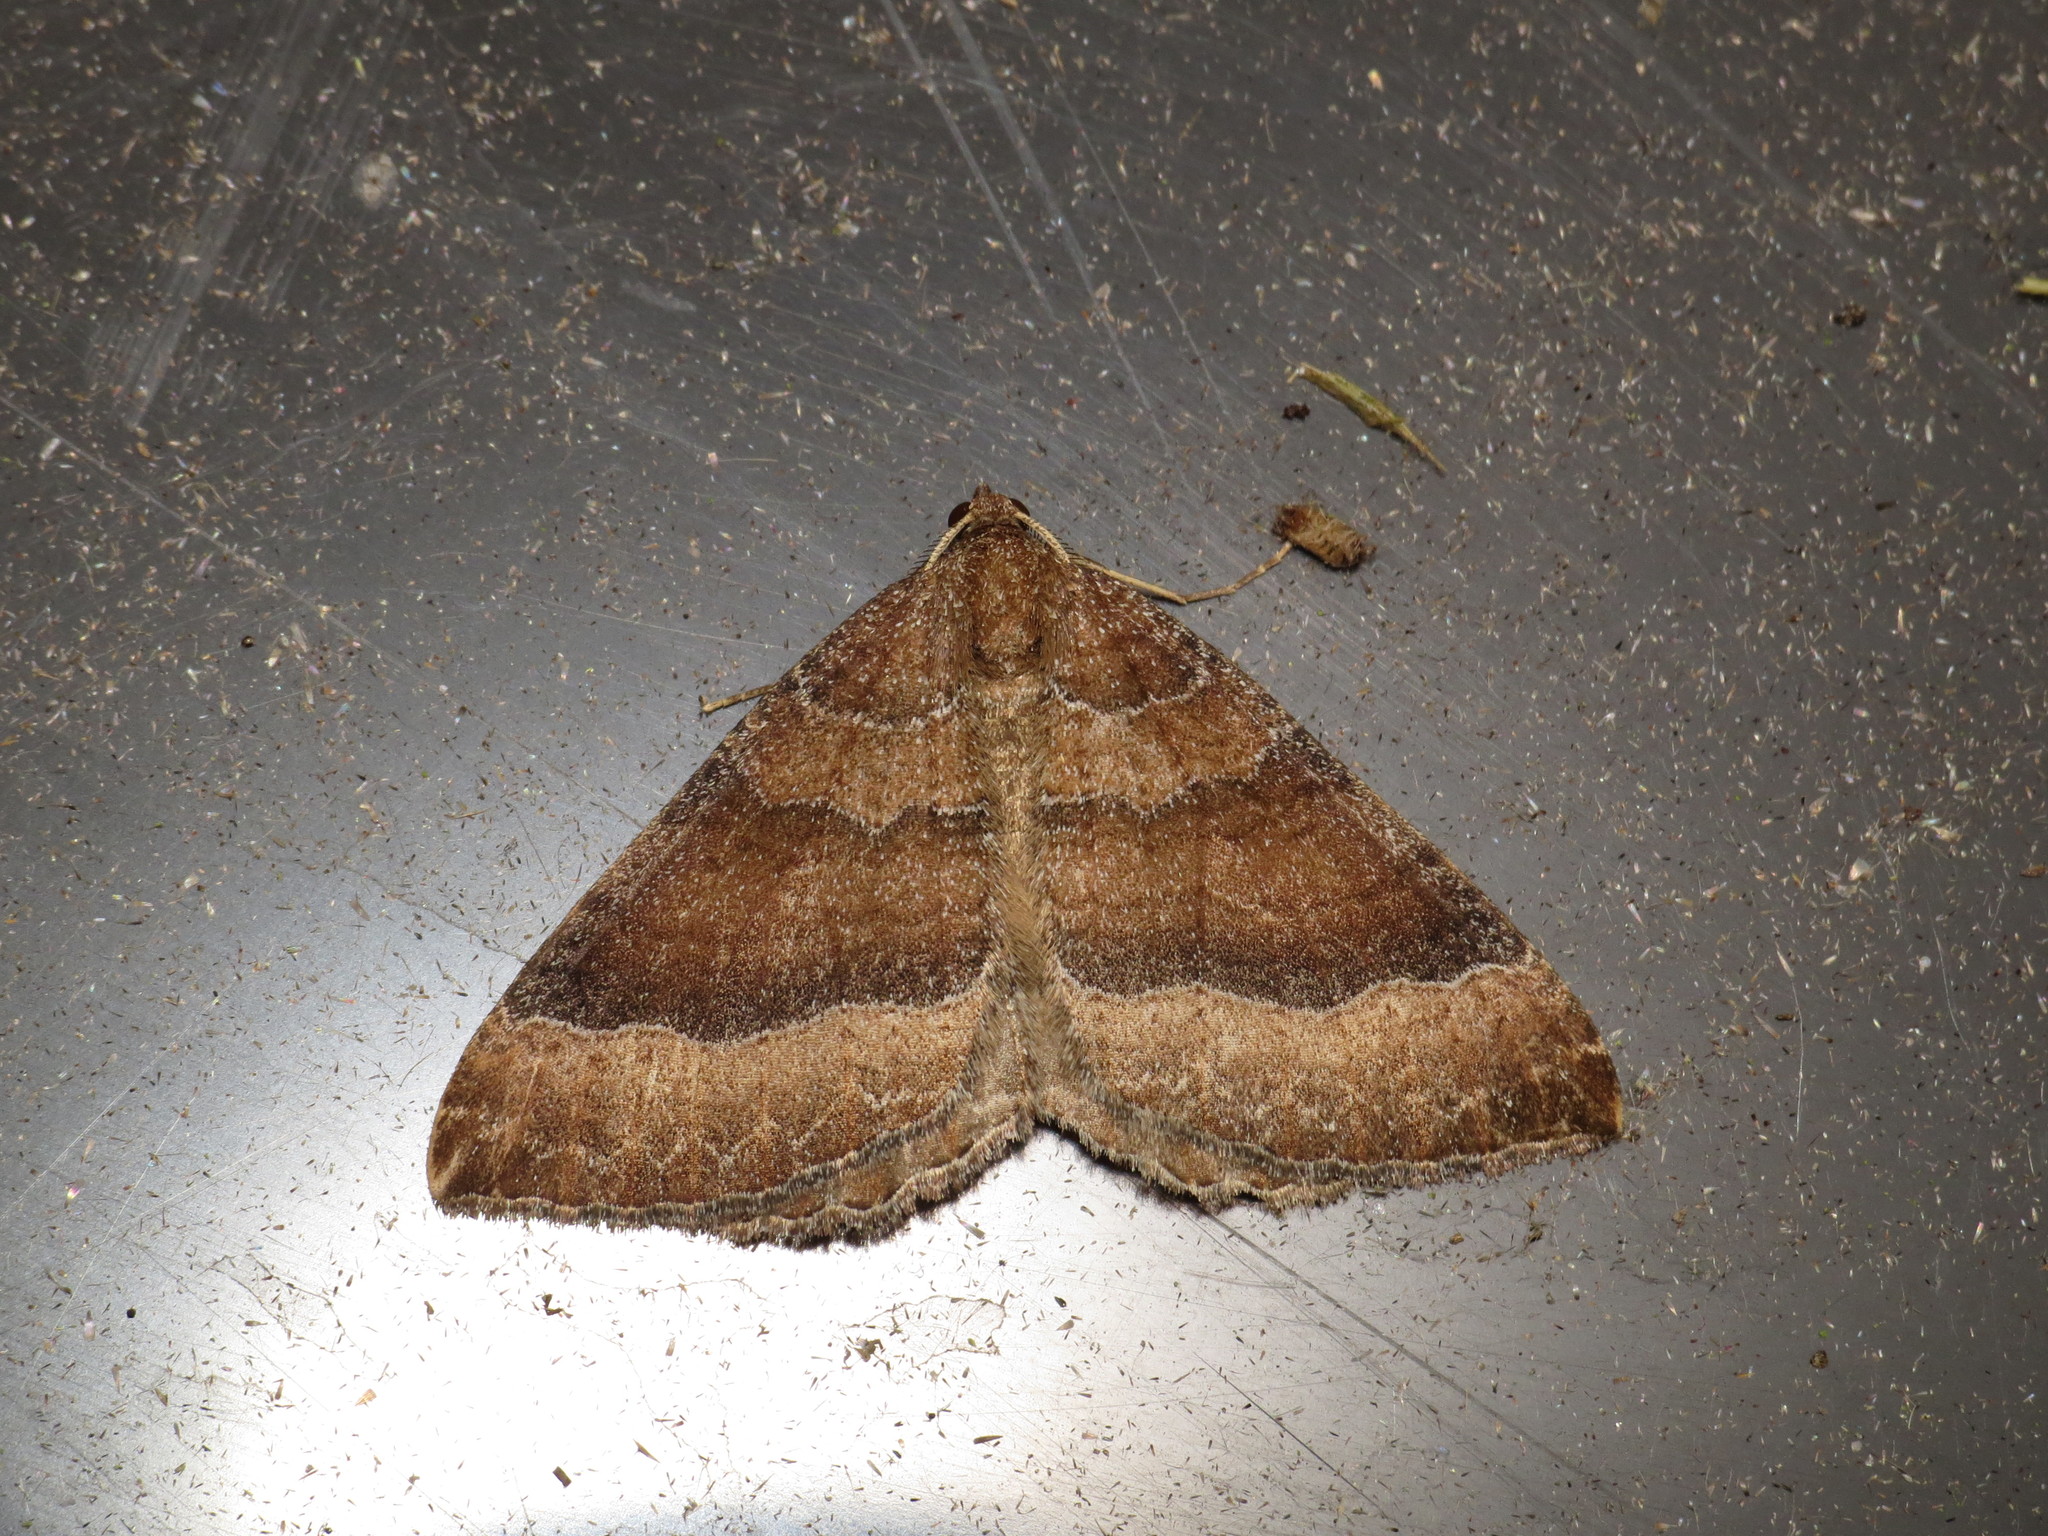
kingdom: Animalia
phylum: Arthropoda
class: Insecta
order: Lepidoptera
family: Geometridae
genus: Larentia
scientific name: Larentia clavaria
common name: Mallow
